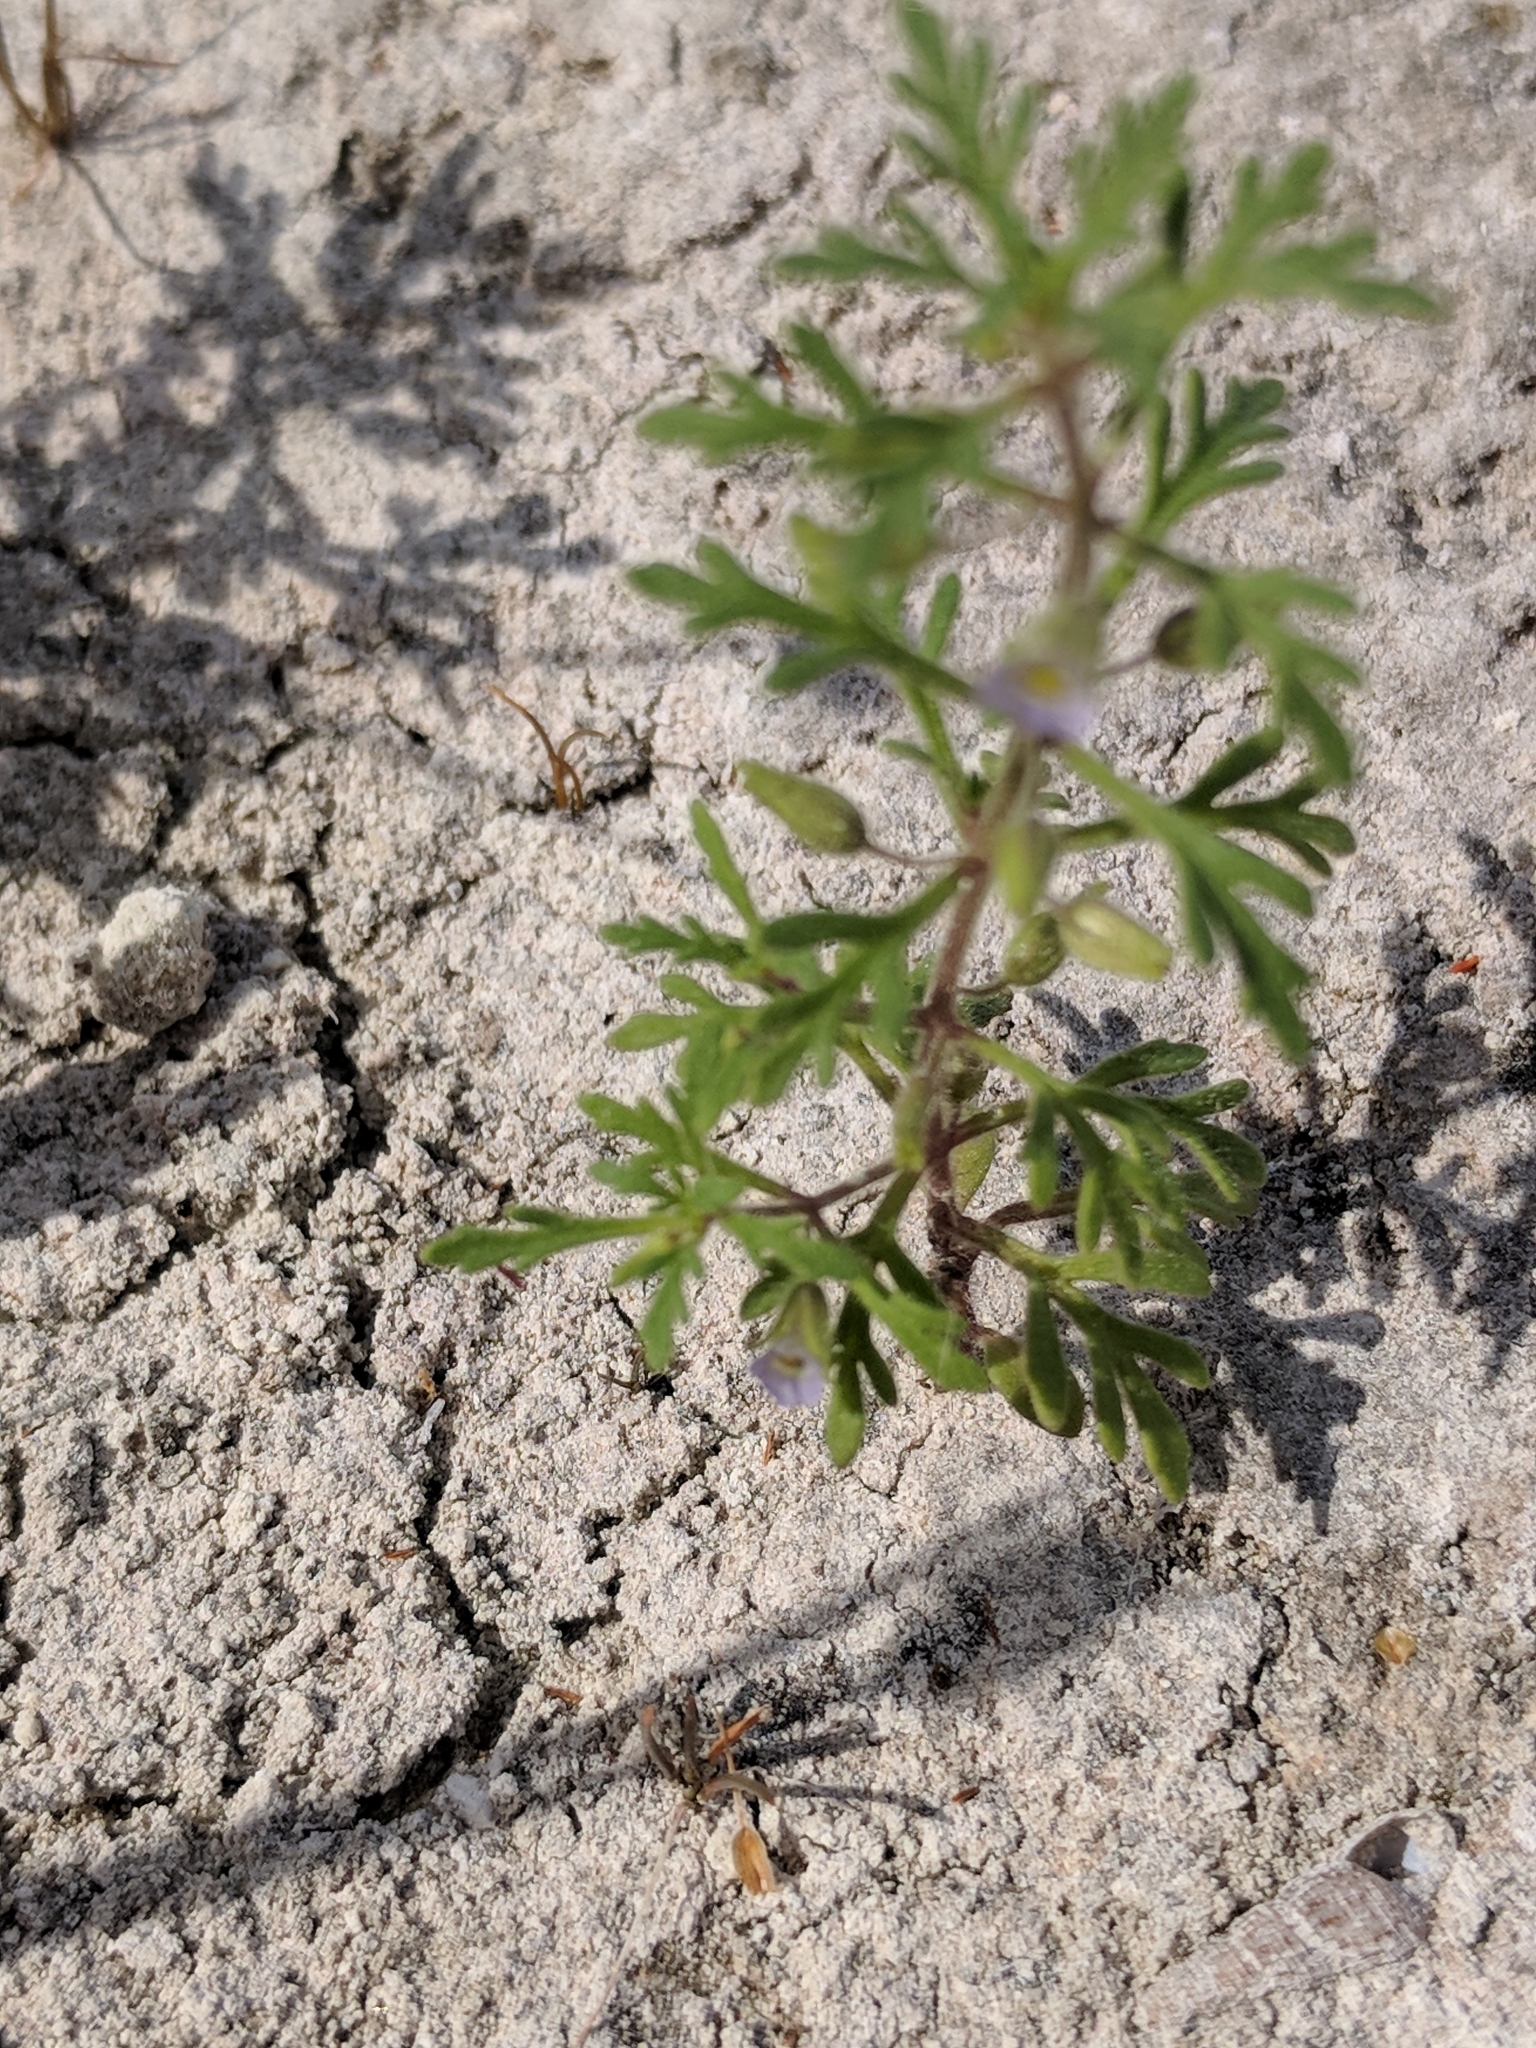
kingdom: Plantae
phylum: Tracheophyta
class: Magnoliopsida
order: Lamiales
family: Plantaginaceae
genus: Leucospora
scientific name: Leucospora multifida
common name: Narrow-leaf paleseed
